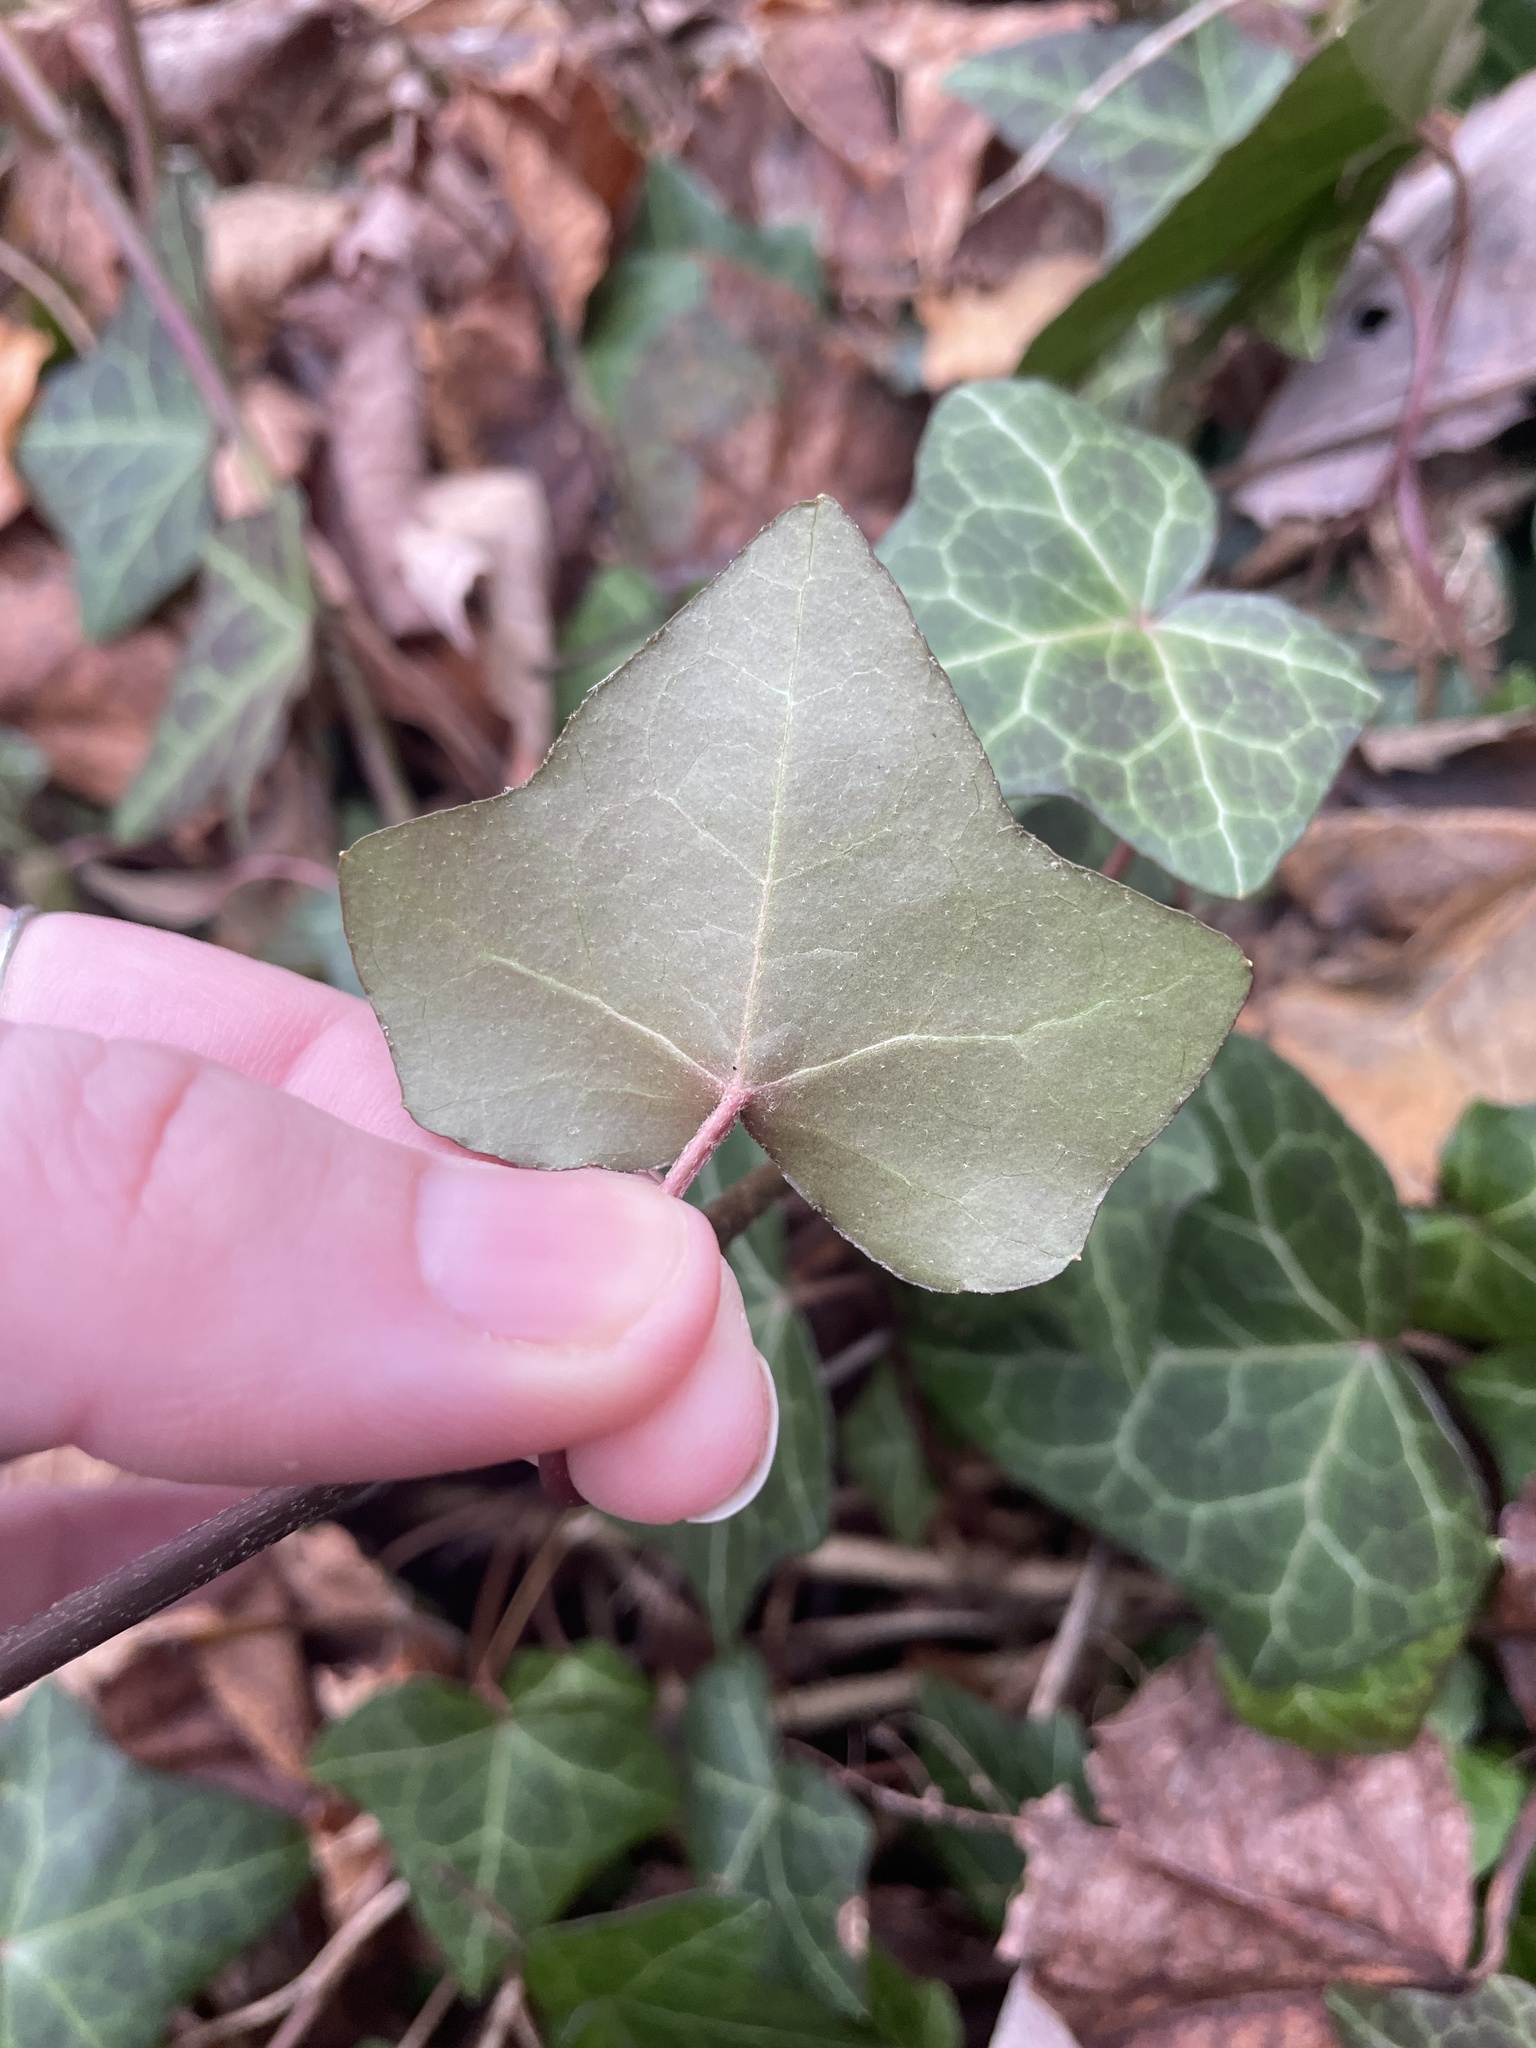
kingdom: Plantae
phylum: Tracheophyta
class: Magnoliopsida
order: Apiales
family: Araliaceae
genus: Hedera
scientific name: Hedera helix
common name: Ivy
